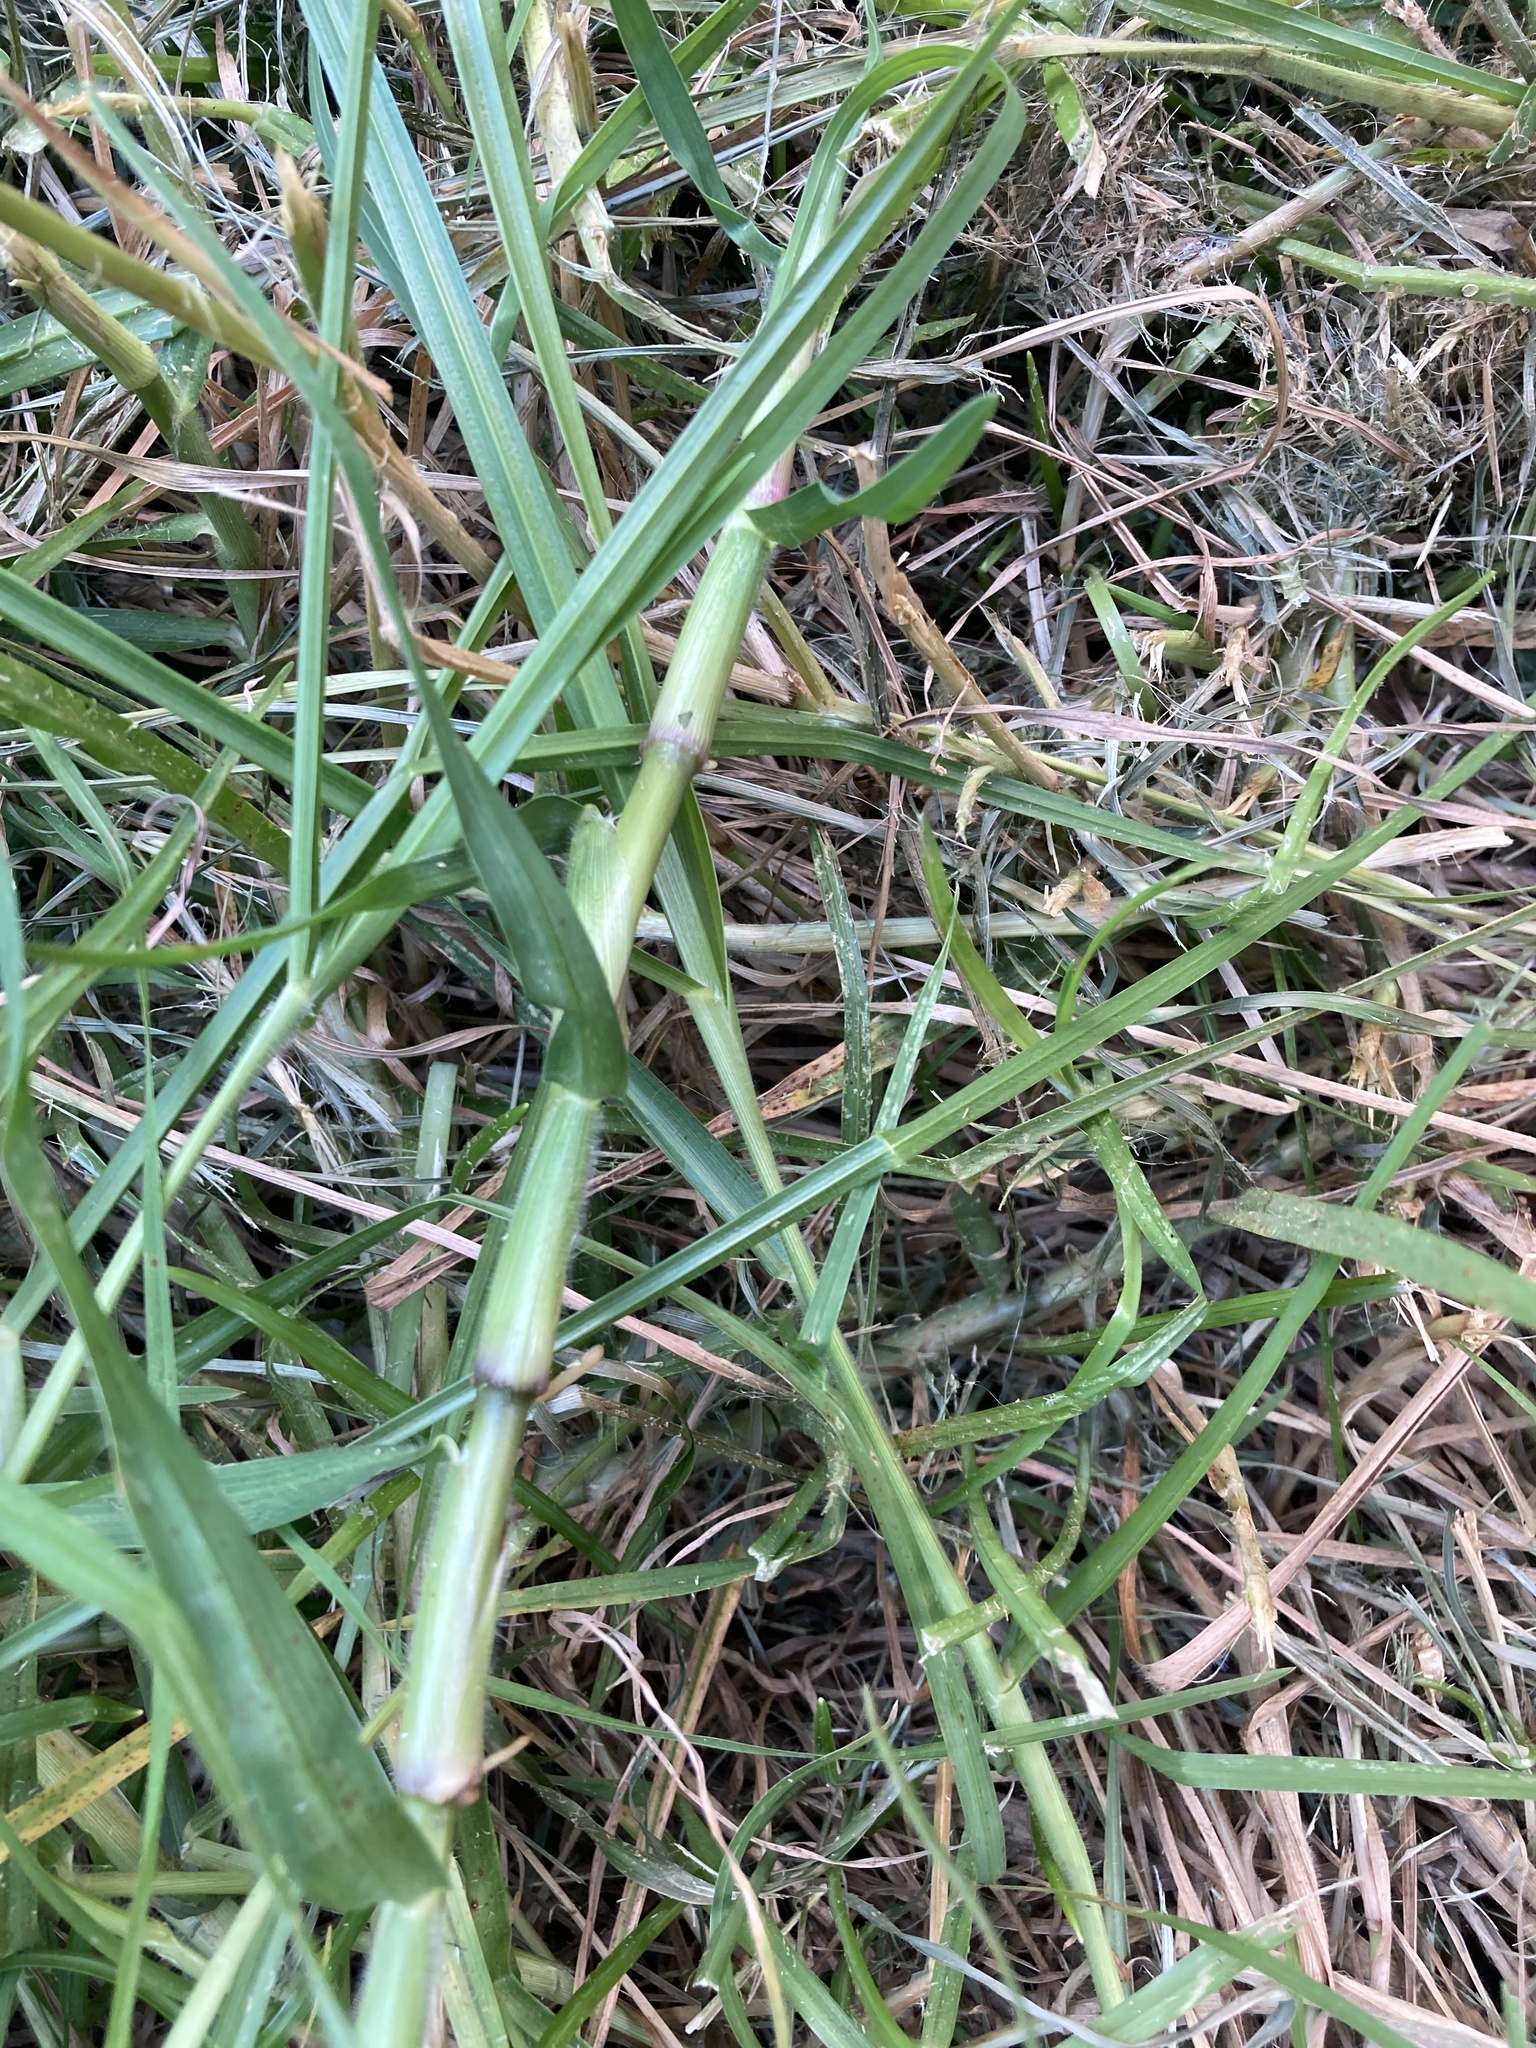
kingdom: Plantae
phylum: Tracheophyta
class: Liliopsida
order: Poales
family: Poaceae
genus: Cenchrus
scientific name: Cenchrus clandestinus
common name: Kikuyugrass
